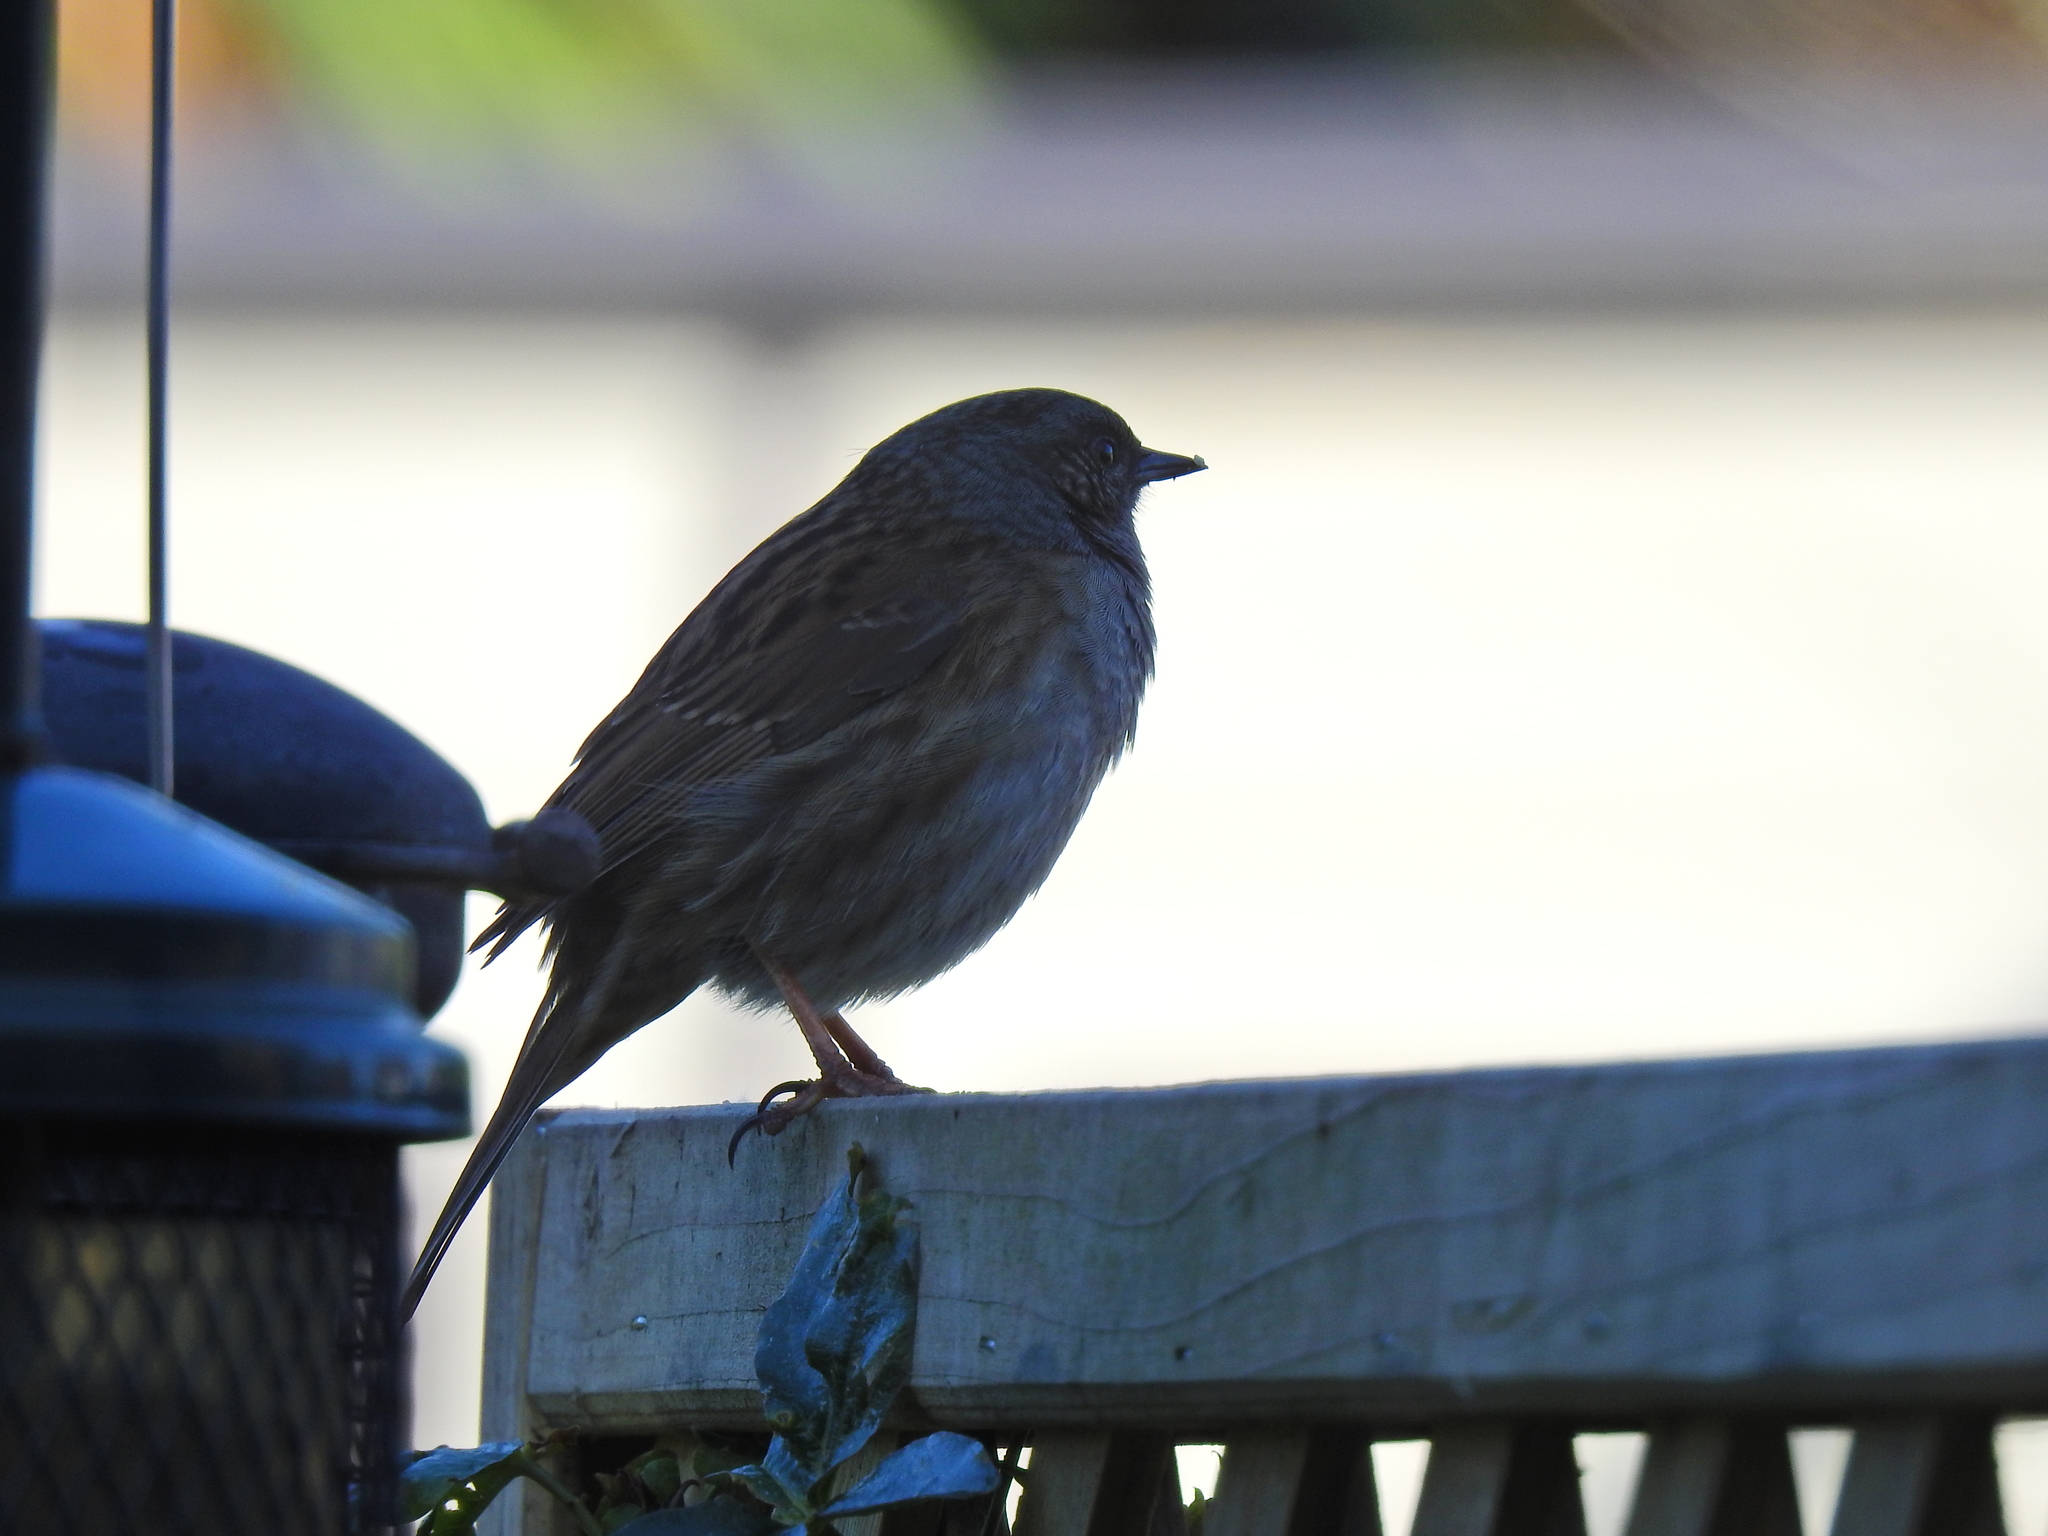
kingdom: Animalia
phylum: Chordata
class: Aves
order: Passeriformes
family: Prunellidae
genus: Prunella
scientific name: Prunella modularis
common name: Dunnock
